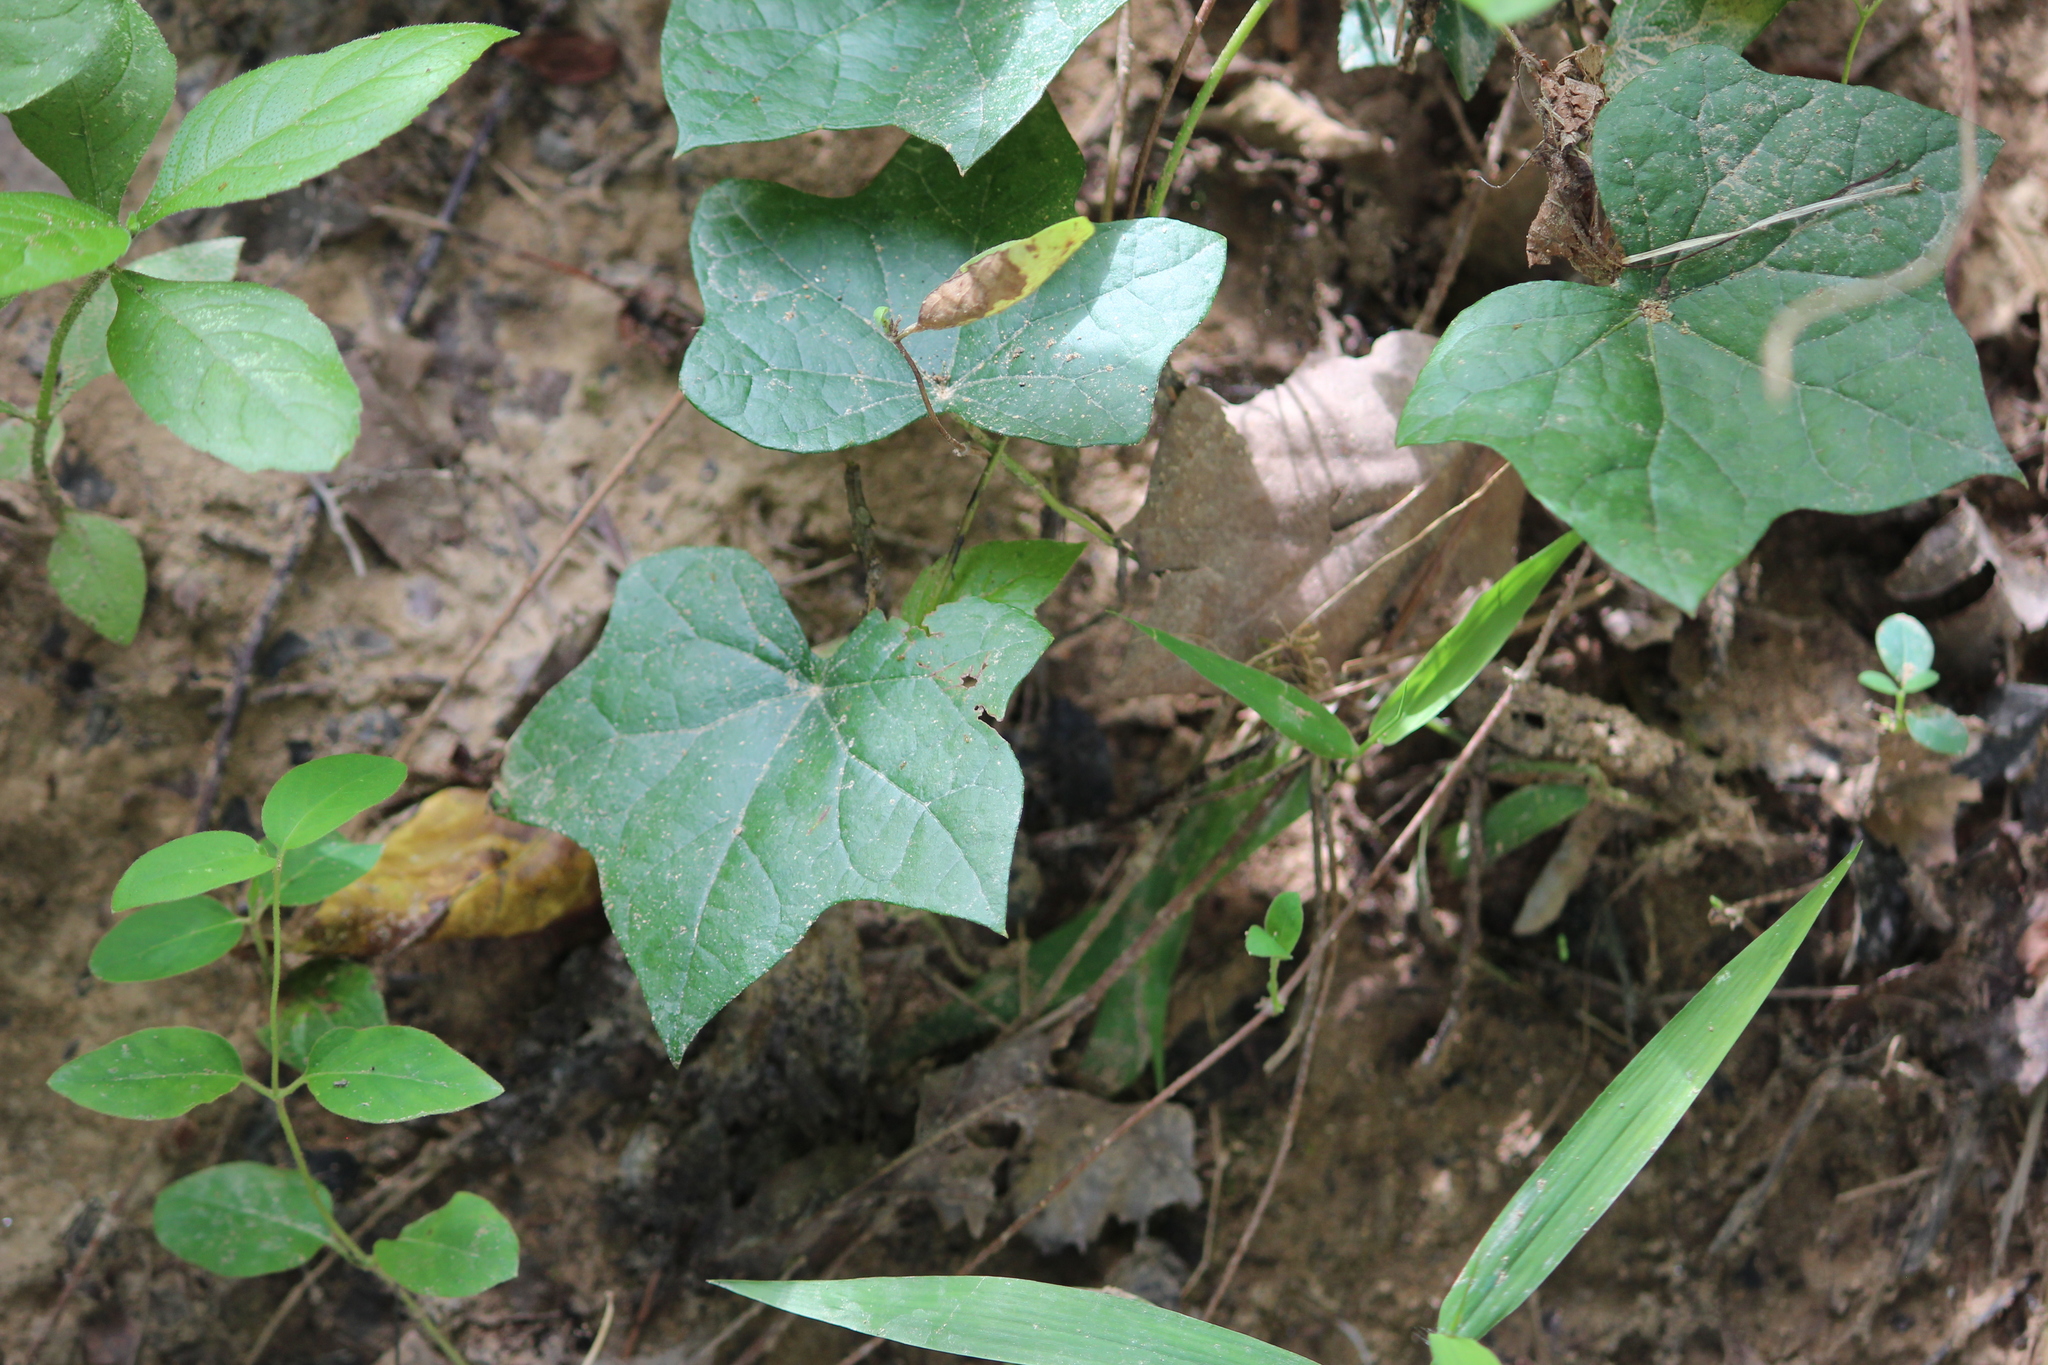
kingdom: Plantae
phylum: Tracheophyta
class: Magnoliopsida
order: Ranunculales
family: Menispermaceae
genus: Menispermum
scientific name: Menispermum canadense
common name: Moonseed
